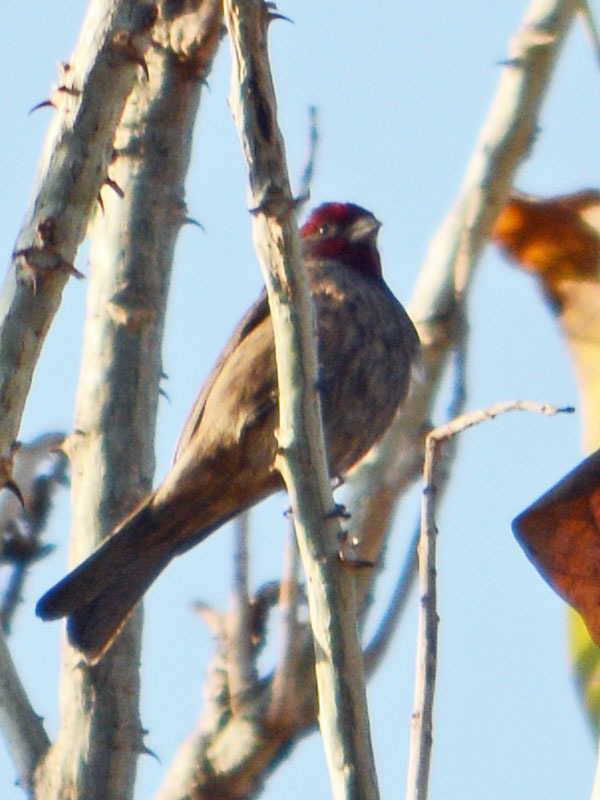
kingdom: Animalia
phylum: Chordata
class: Aves
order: Passeriformes
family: Fringillidae
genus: Haemorhous
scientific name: Haemorhous mexicanus
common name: House finch
